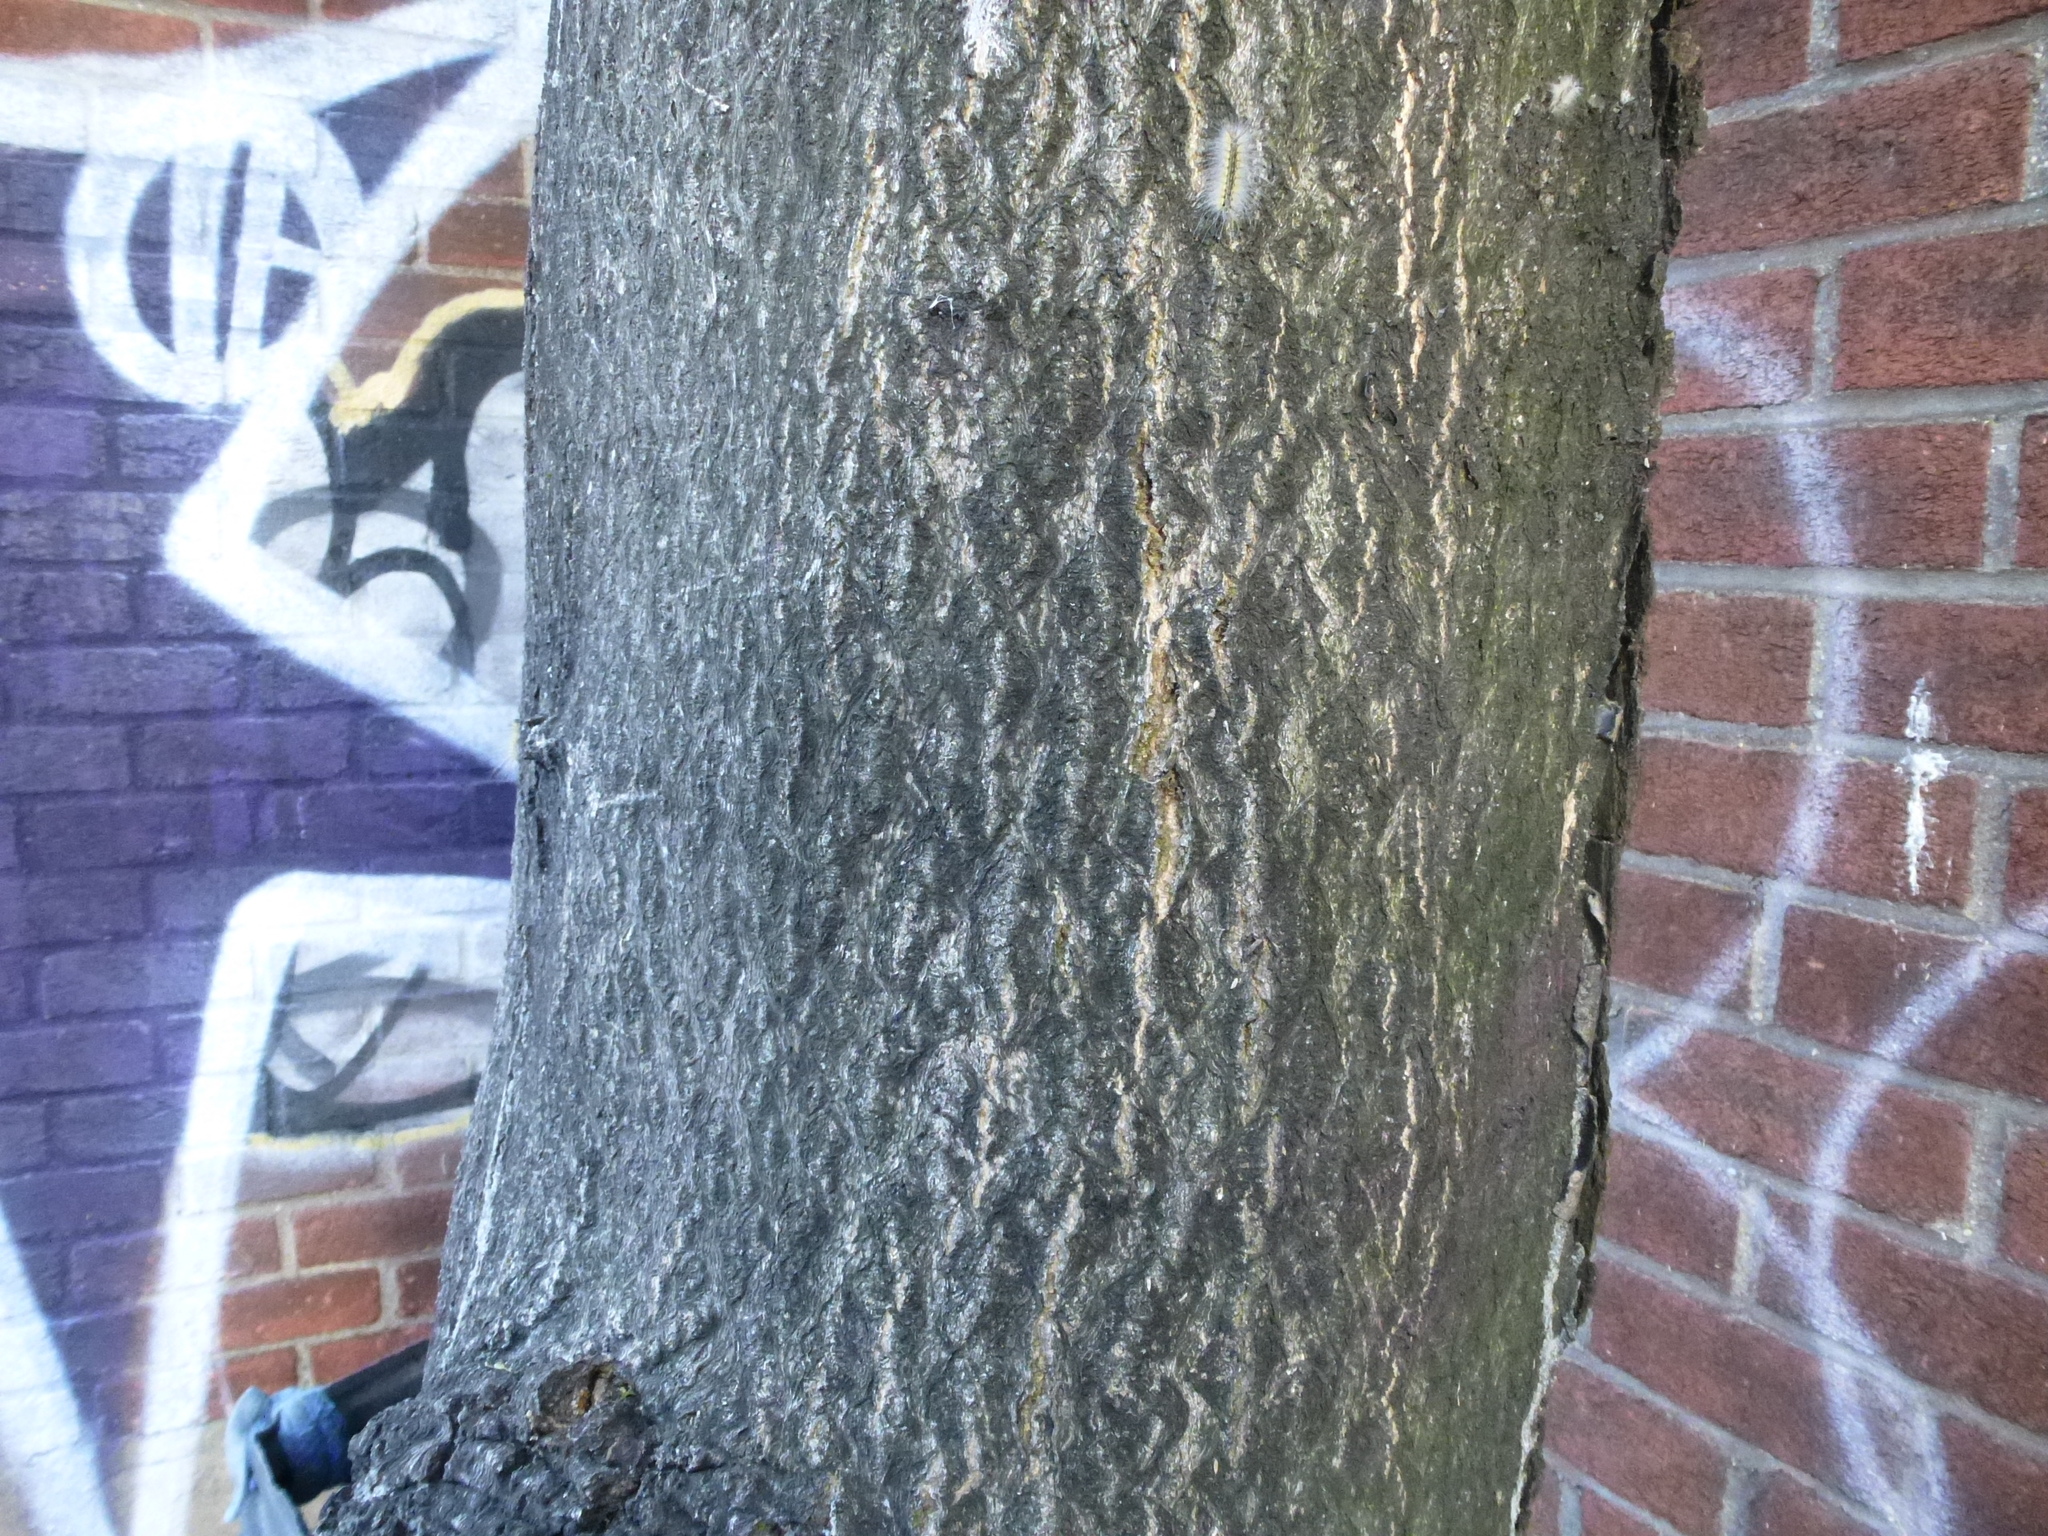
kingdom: Plantae
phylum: Tracheophyta
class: Magnoliopsida
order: Sapindales
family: Simaroubaceae
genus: Ailanthus
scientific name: Ailanthus altissima
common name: Tree-of-heaven
